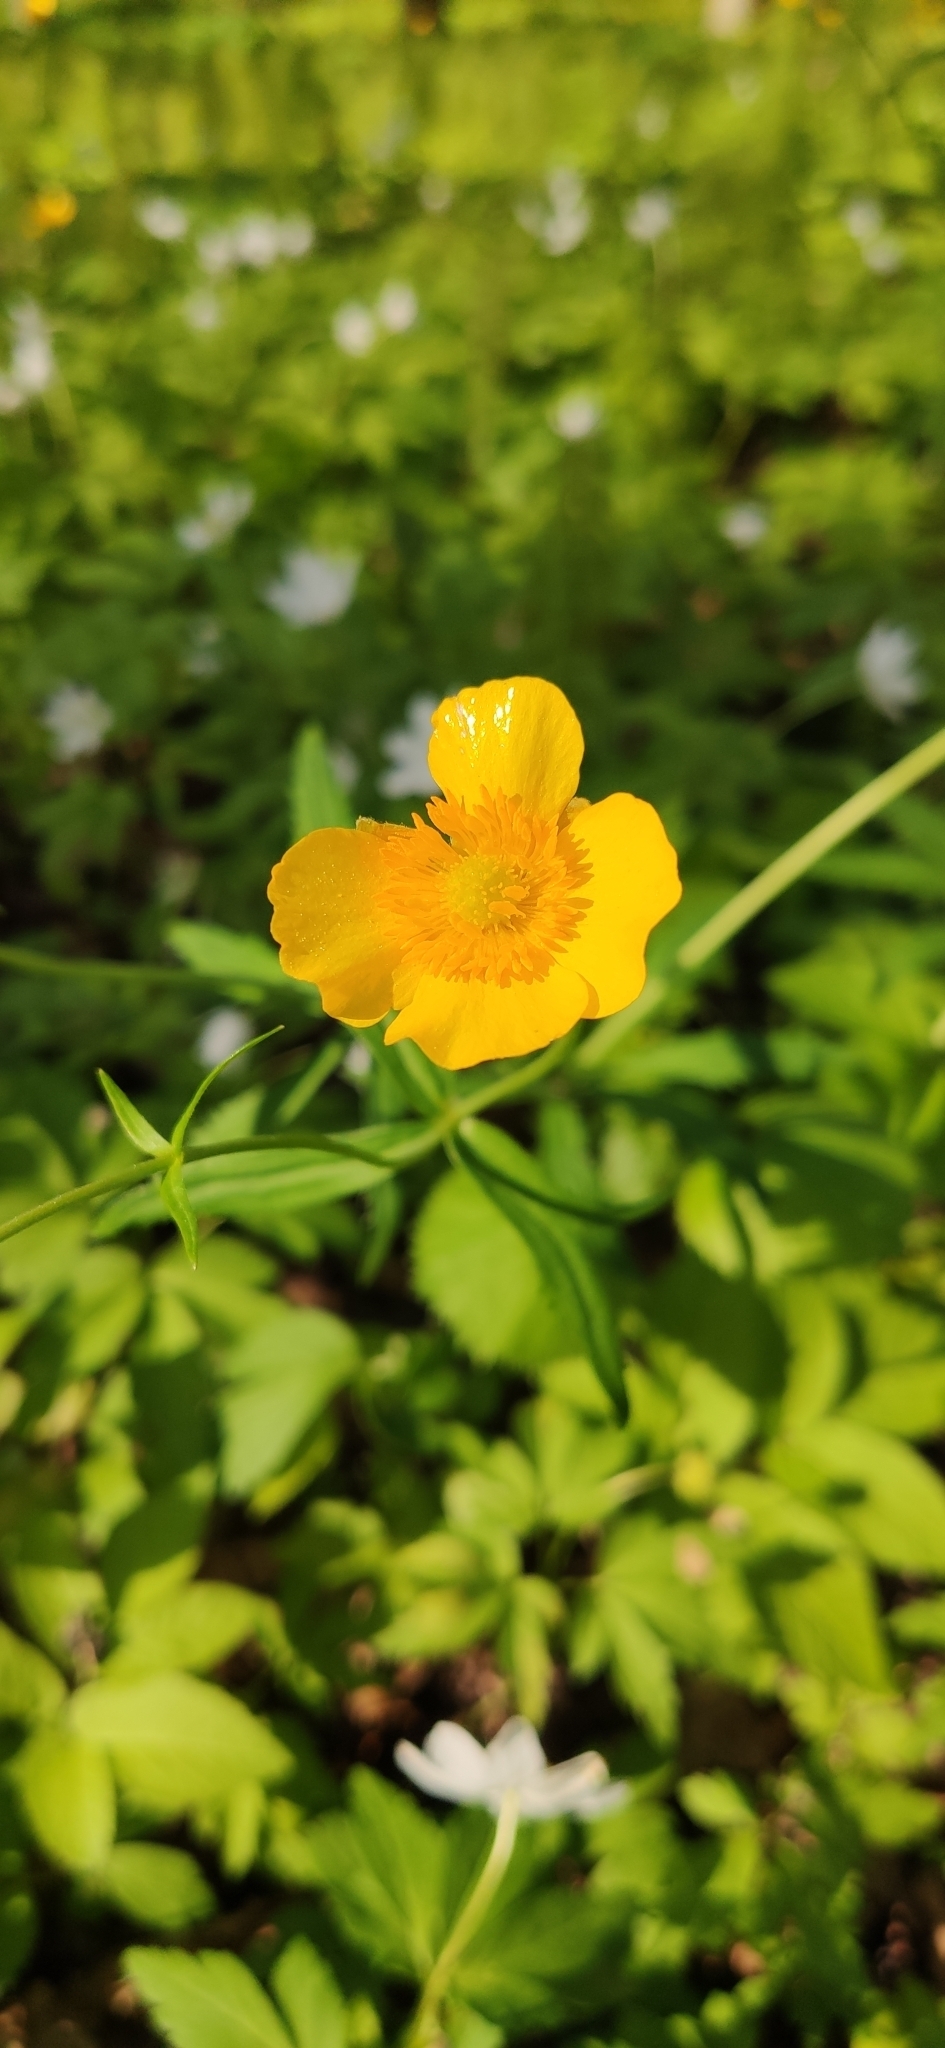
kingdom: Plantae
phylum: Tracheophyta
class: Magnoliopsida
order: Ranunculales
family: Ranunculaceae
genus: Ranunculus
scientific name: Ranunculus cassubicus
